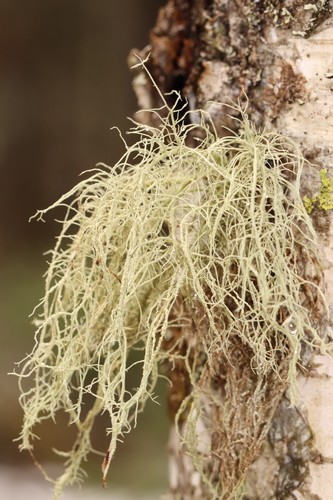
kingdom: Fungi
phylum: Ascomycota
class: Lecanoromycetes
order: Lecanorales
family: Parmeliaceae
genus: Usnea
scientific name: Usnea
